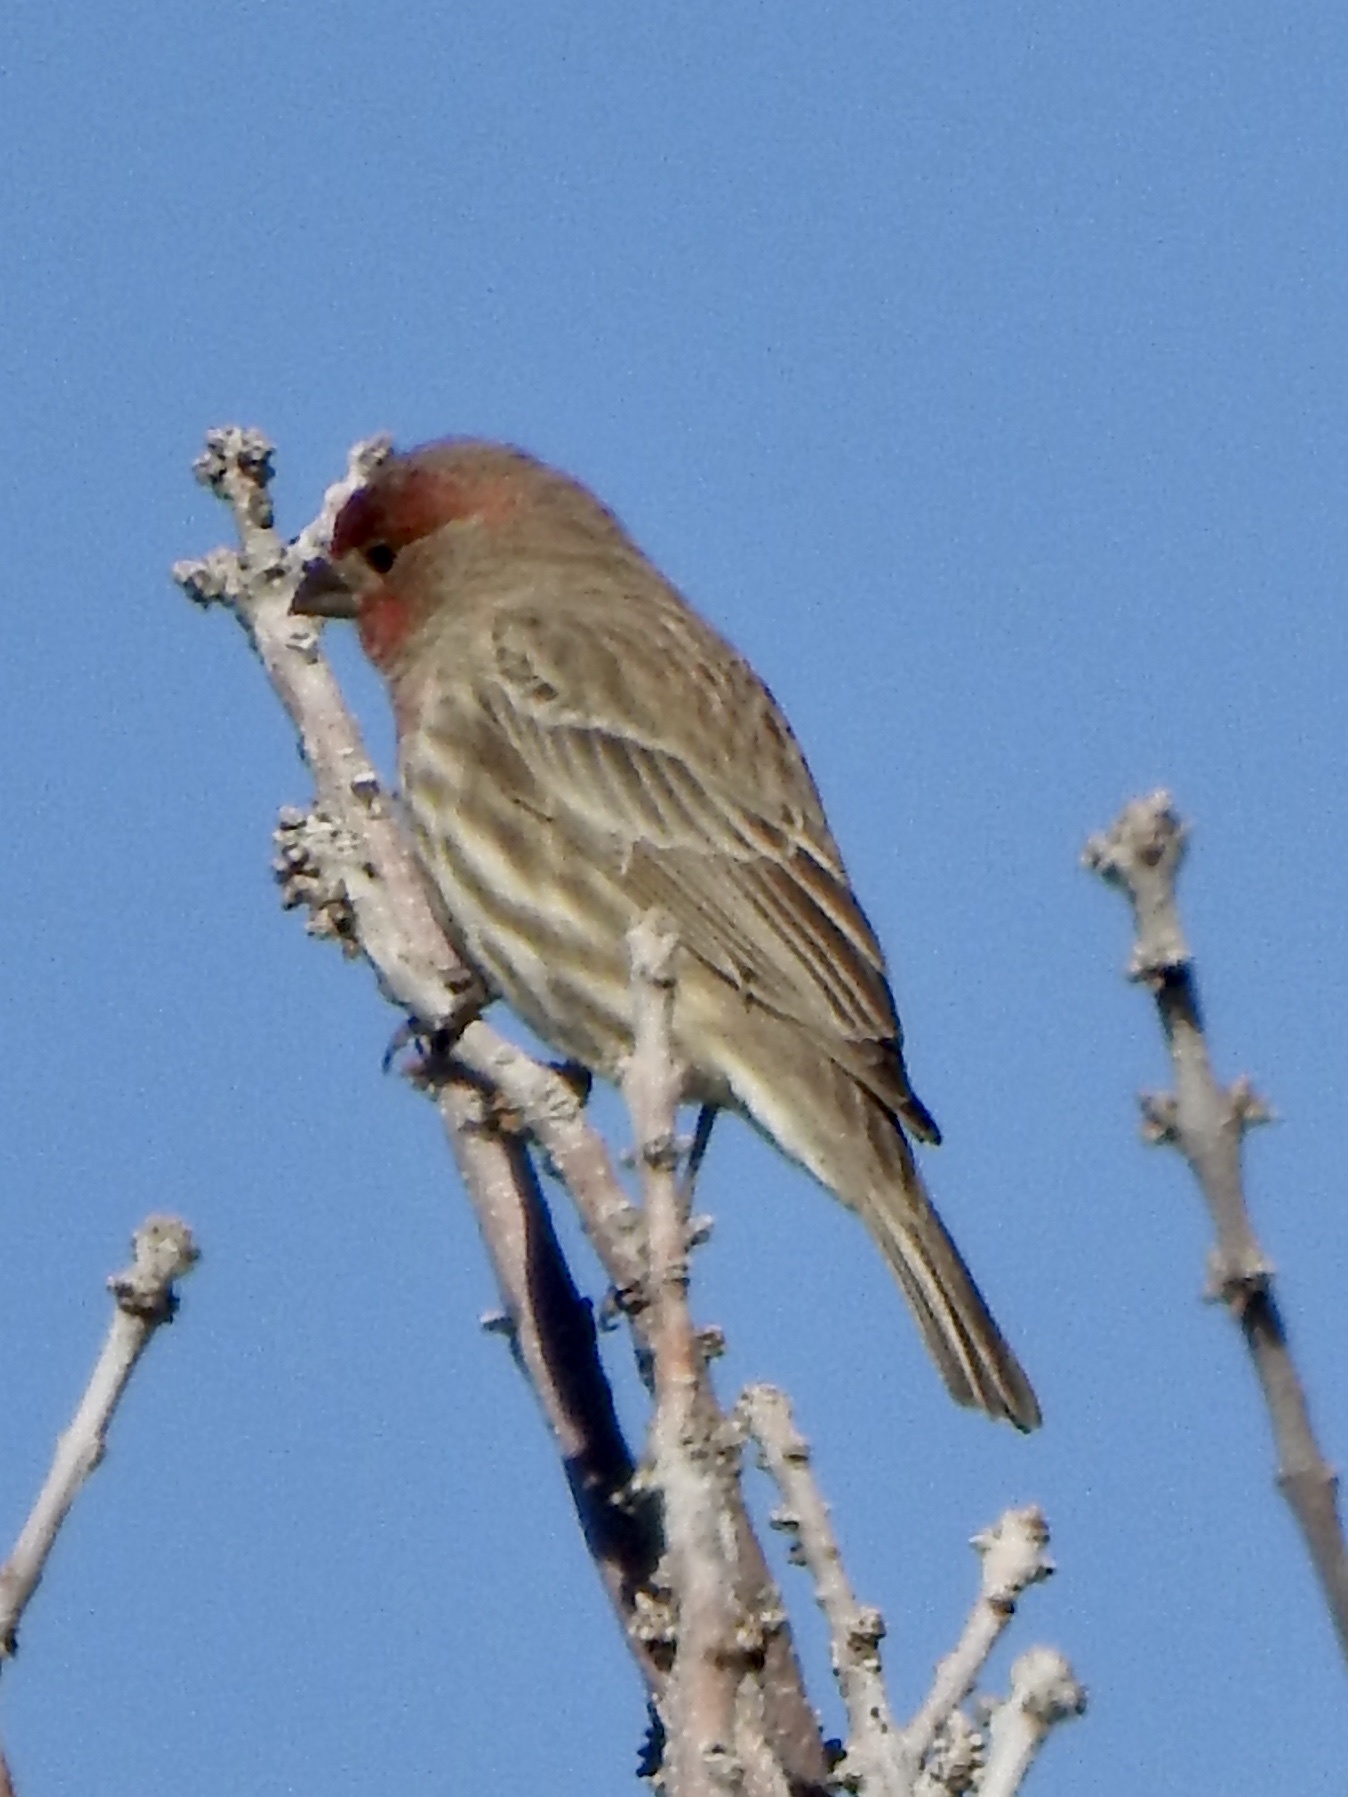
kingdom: Animalia
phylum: Chordata
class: Aves
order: Passeriformes
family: Fringillidae
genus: Haemorhous
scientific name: Haemorhous mexicanus
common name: House finch
